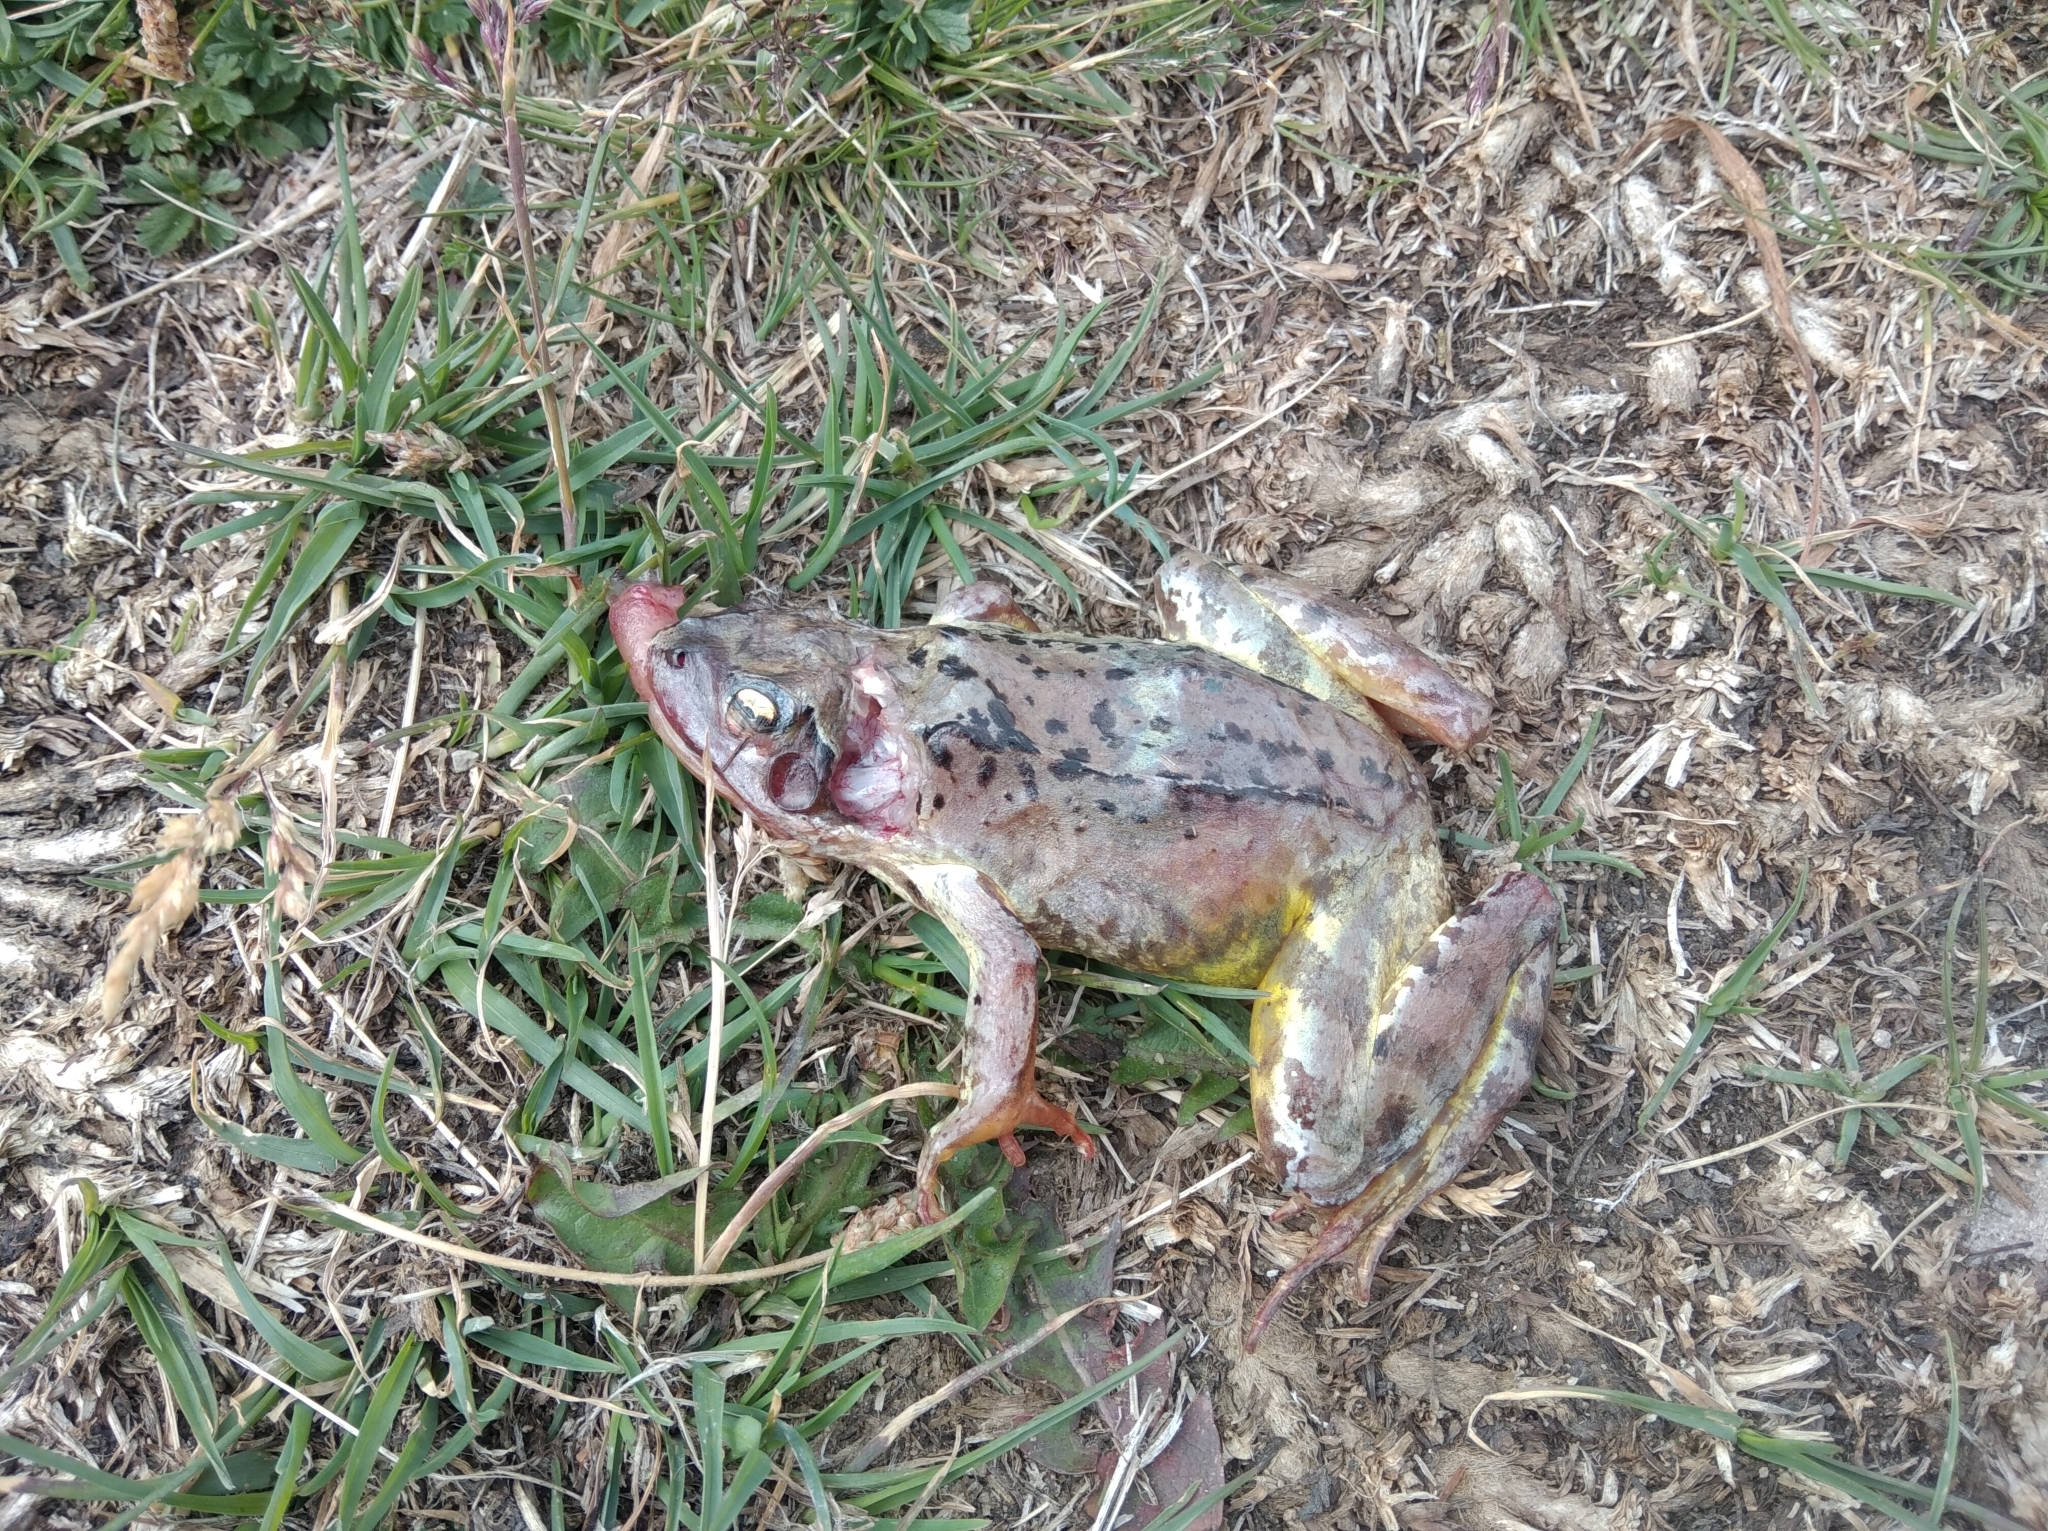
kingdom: Animalia
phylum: Chordata
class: Amphibia
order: Anura
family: Ranidae
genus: Rana
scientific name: Rana temporaria
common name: Common frog
